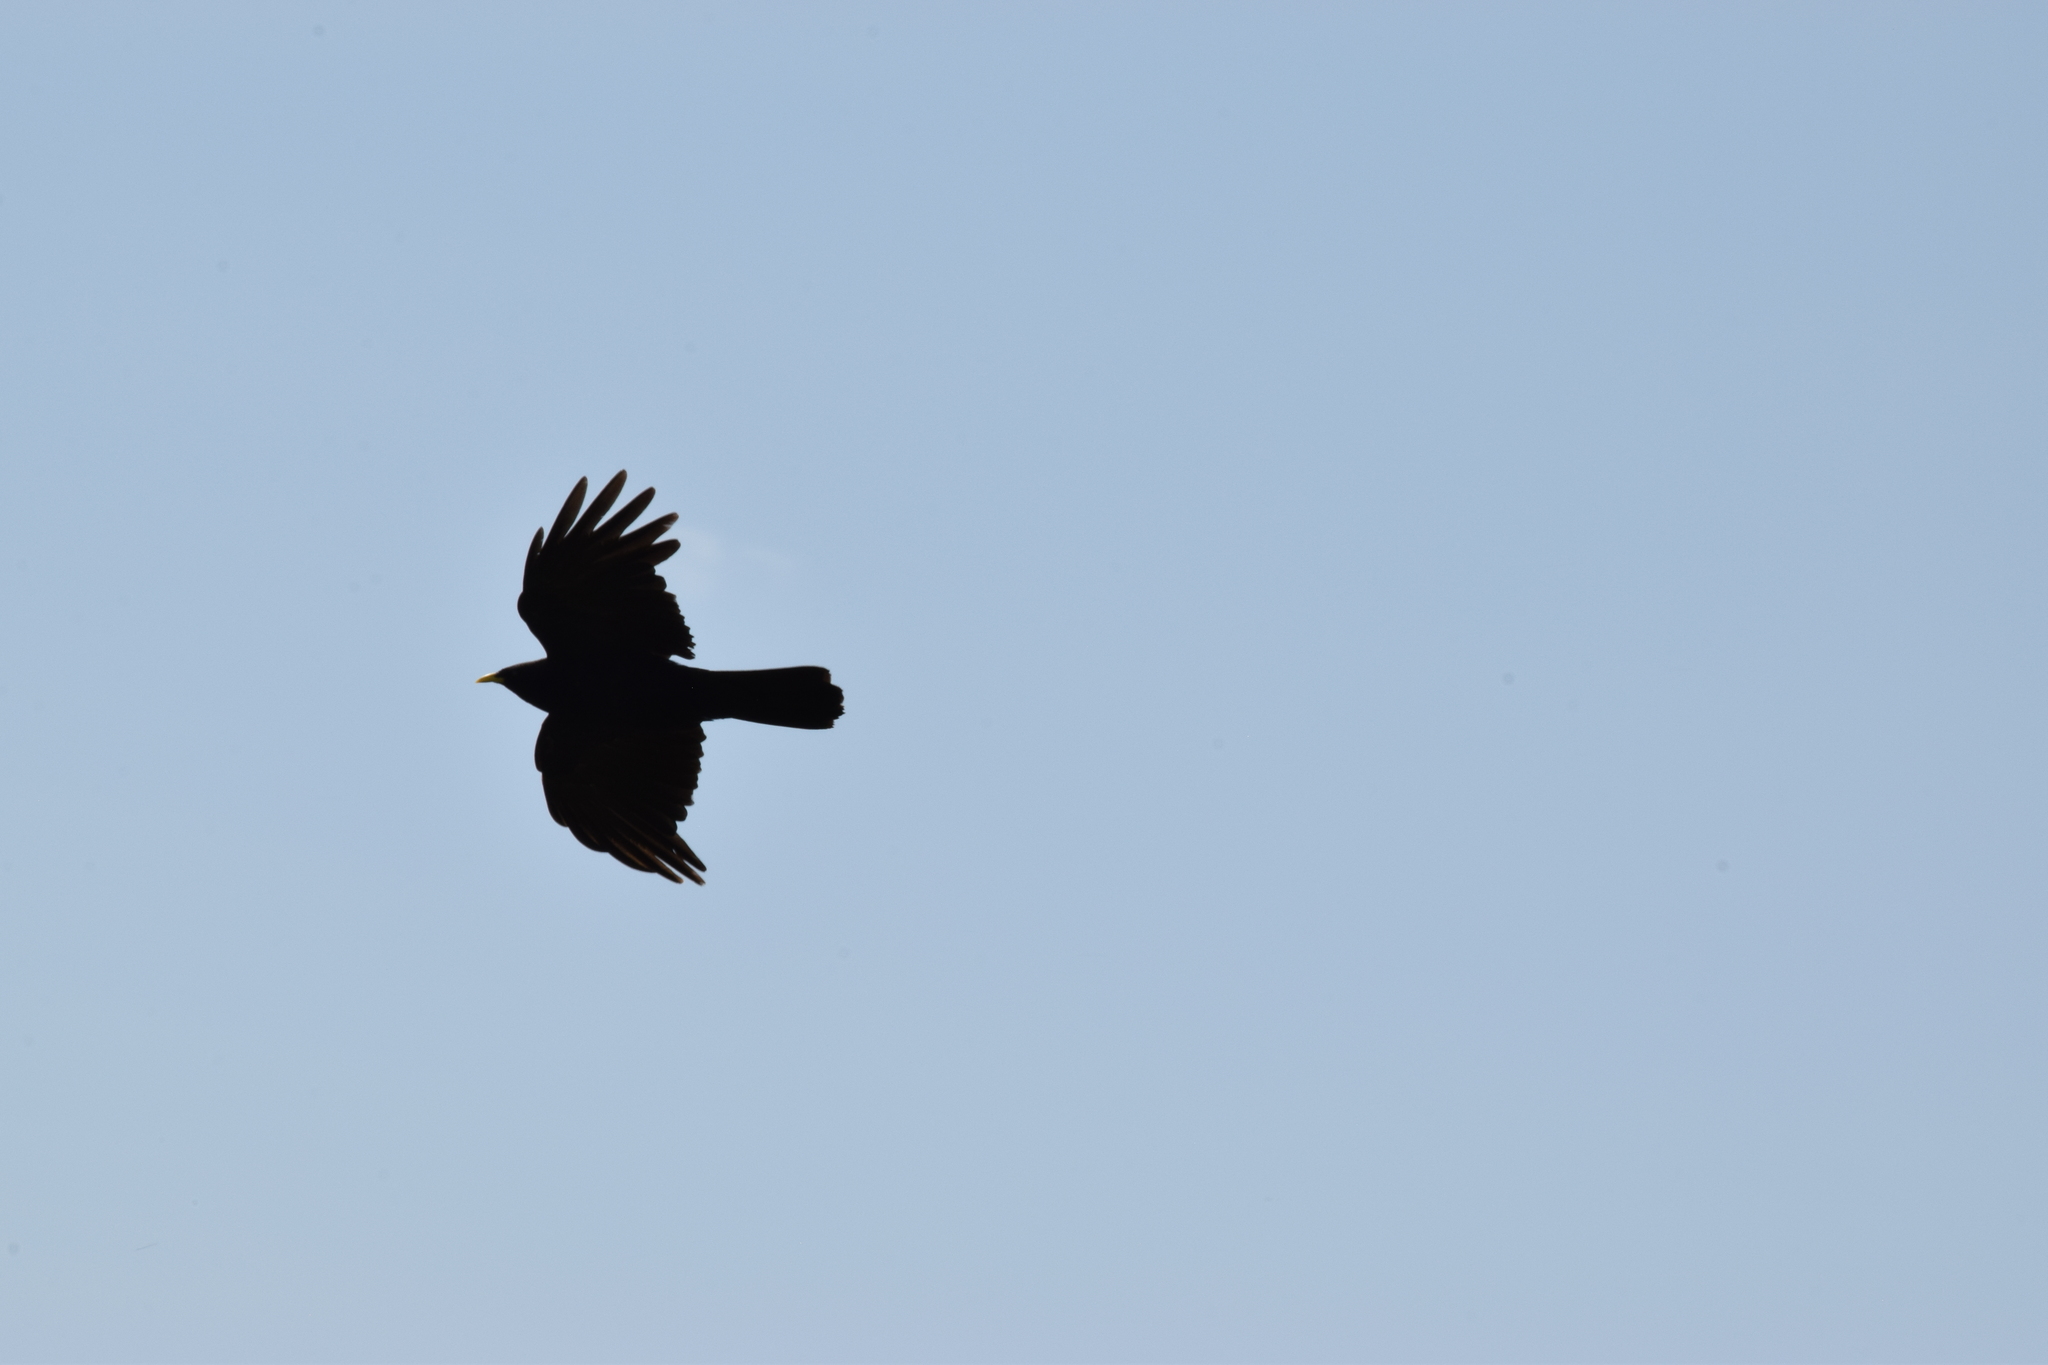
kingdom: Animalia
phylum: Chordata
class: Aves
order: Passeriformes
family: Corvidae
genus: Pyrrhocorax
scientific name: Pyrrhocorax graculus
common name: Alpine chough
